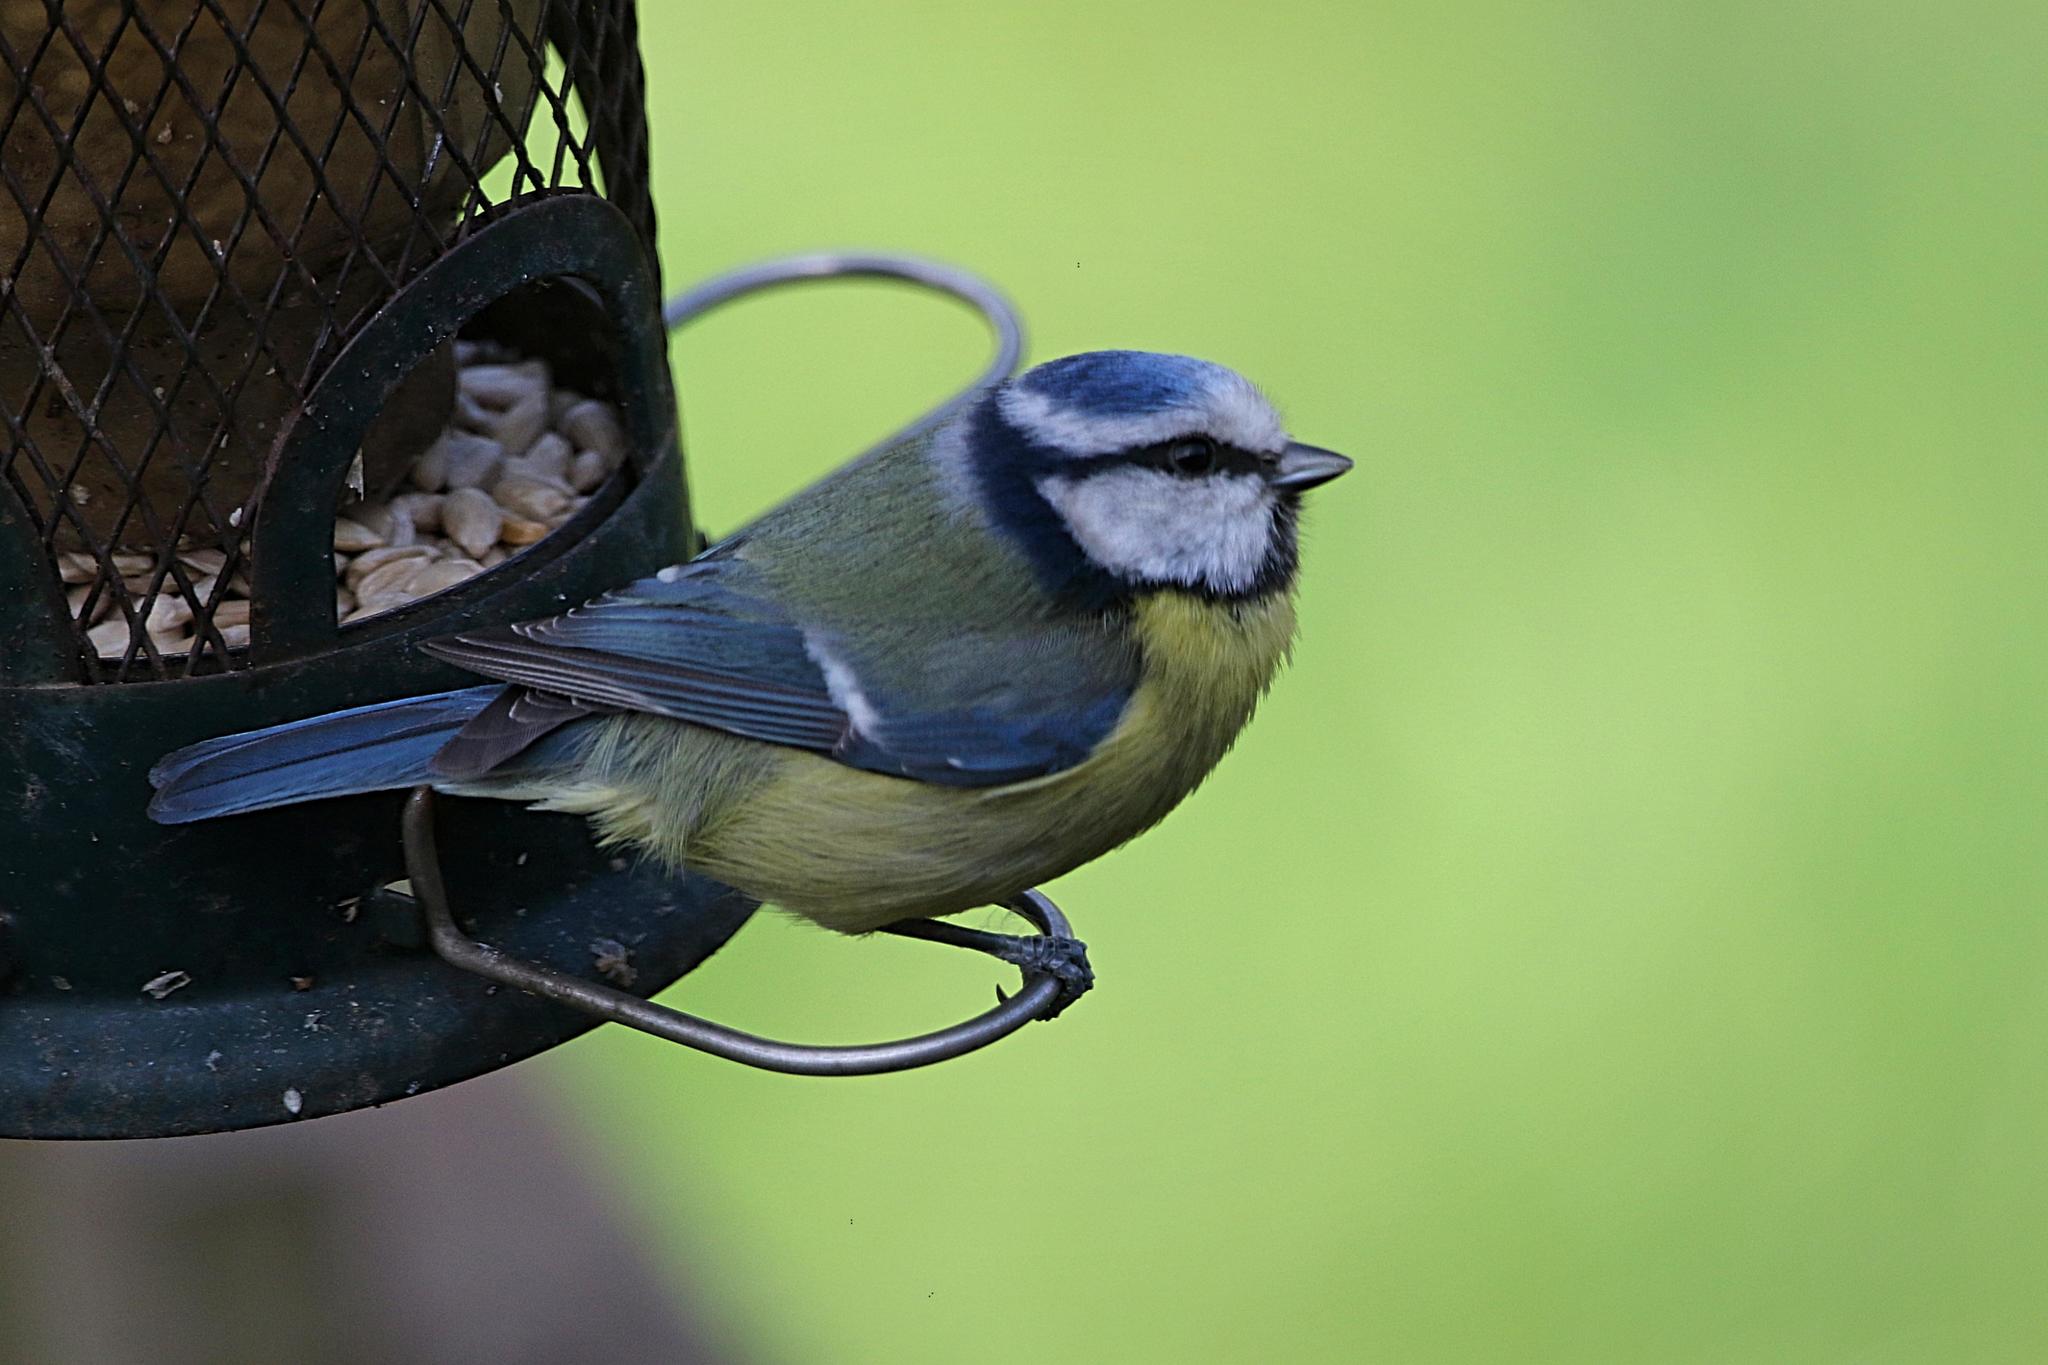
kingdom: Animalia
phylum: Chordata
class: Aves
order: Passeriformes
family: Paridae
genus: Cyanistes
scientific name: Cyanistes caeruleus
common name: Eurasian blue tit
